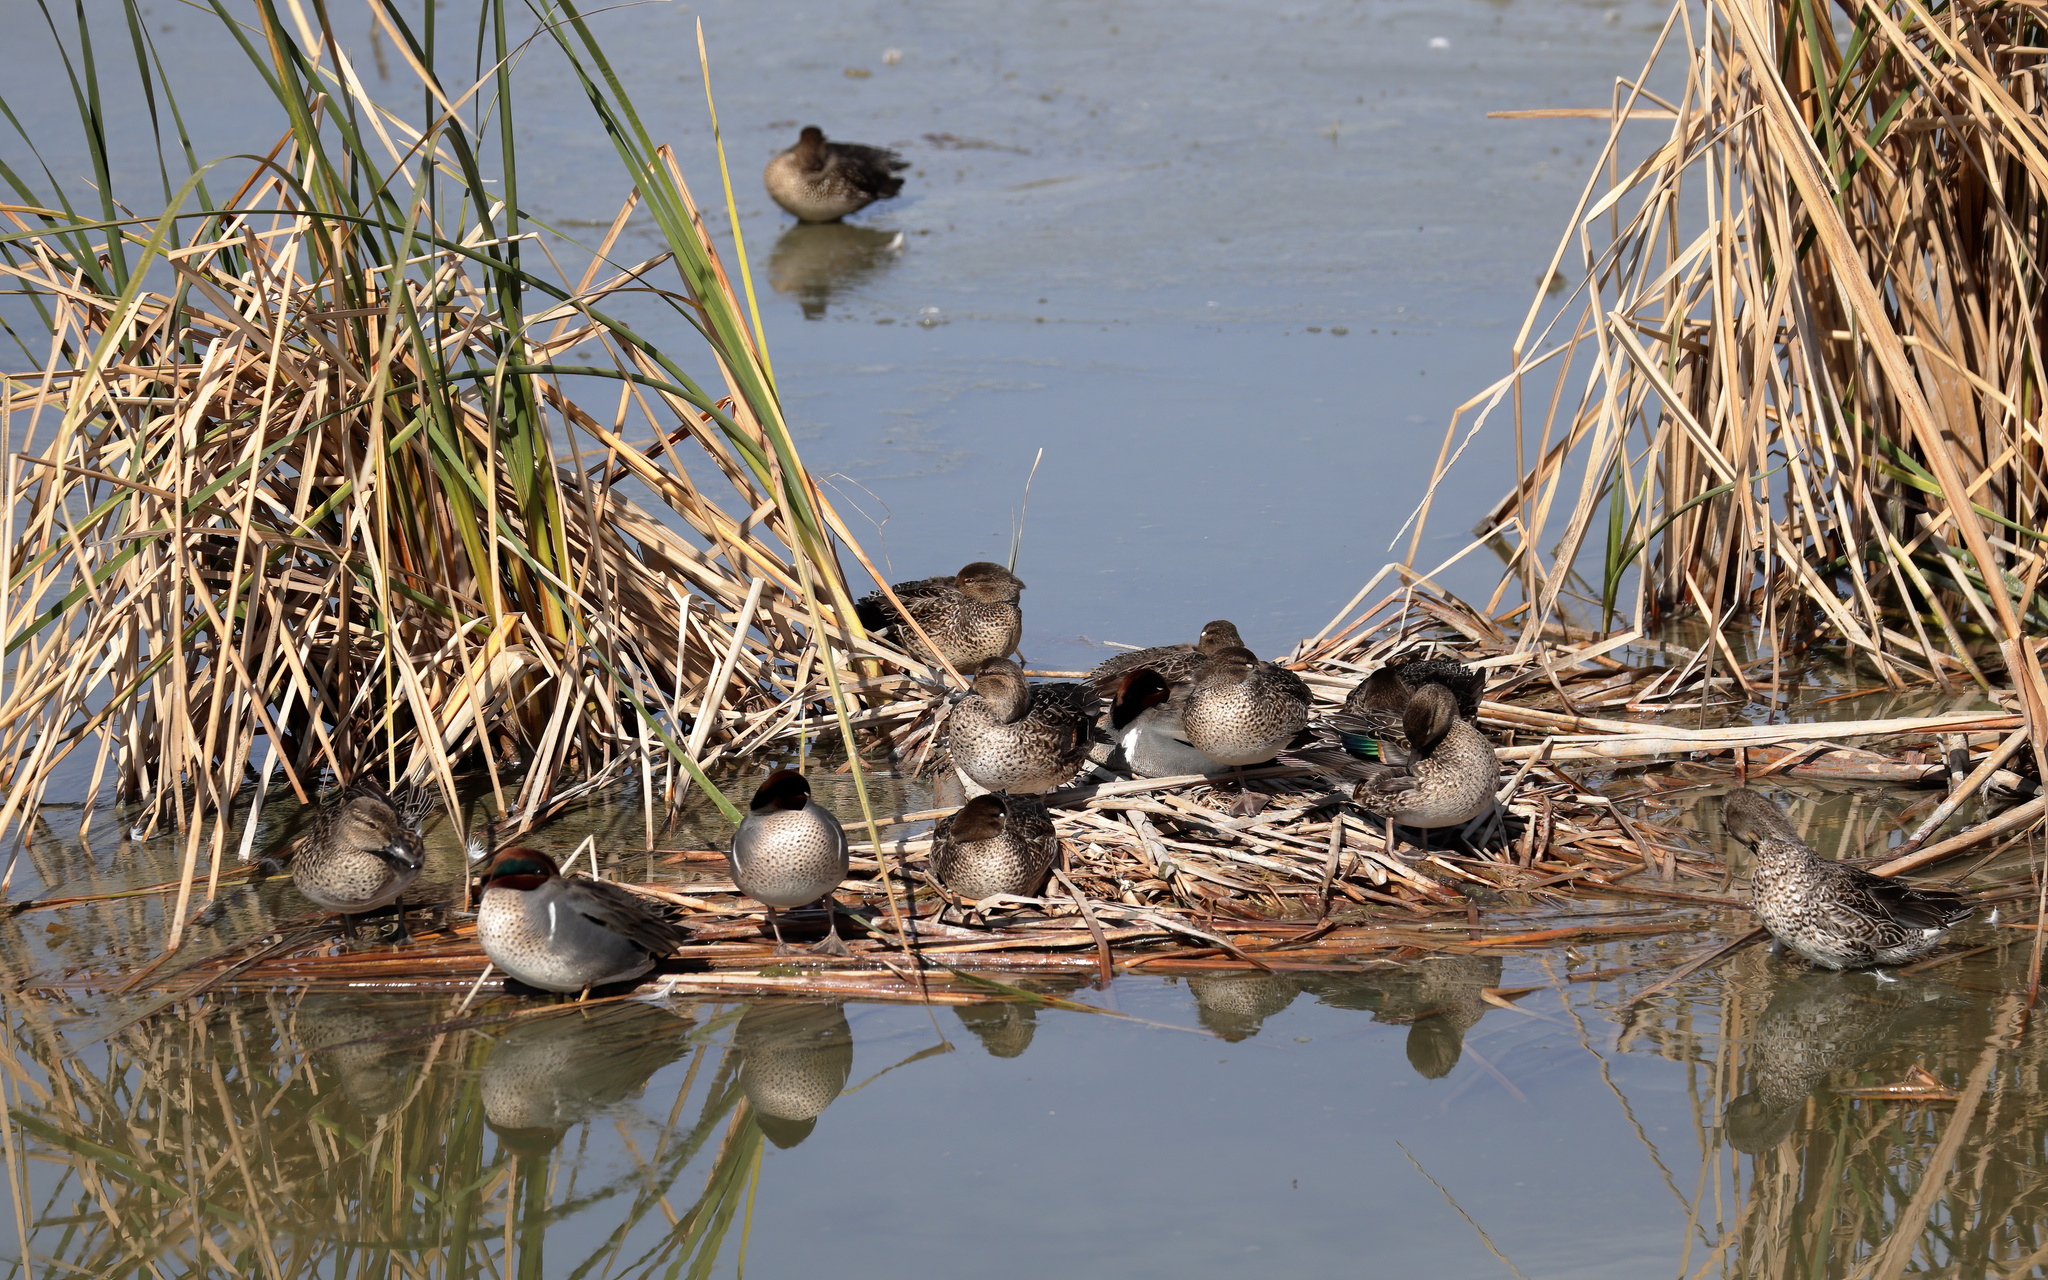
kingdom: Animalia
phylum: Chordata
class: Aves
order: Anseriformes
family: Anatidae
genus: Anas
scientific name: Anas crecca
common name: Eurasian teal
